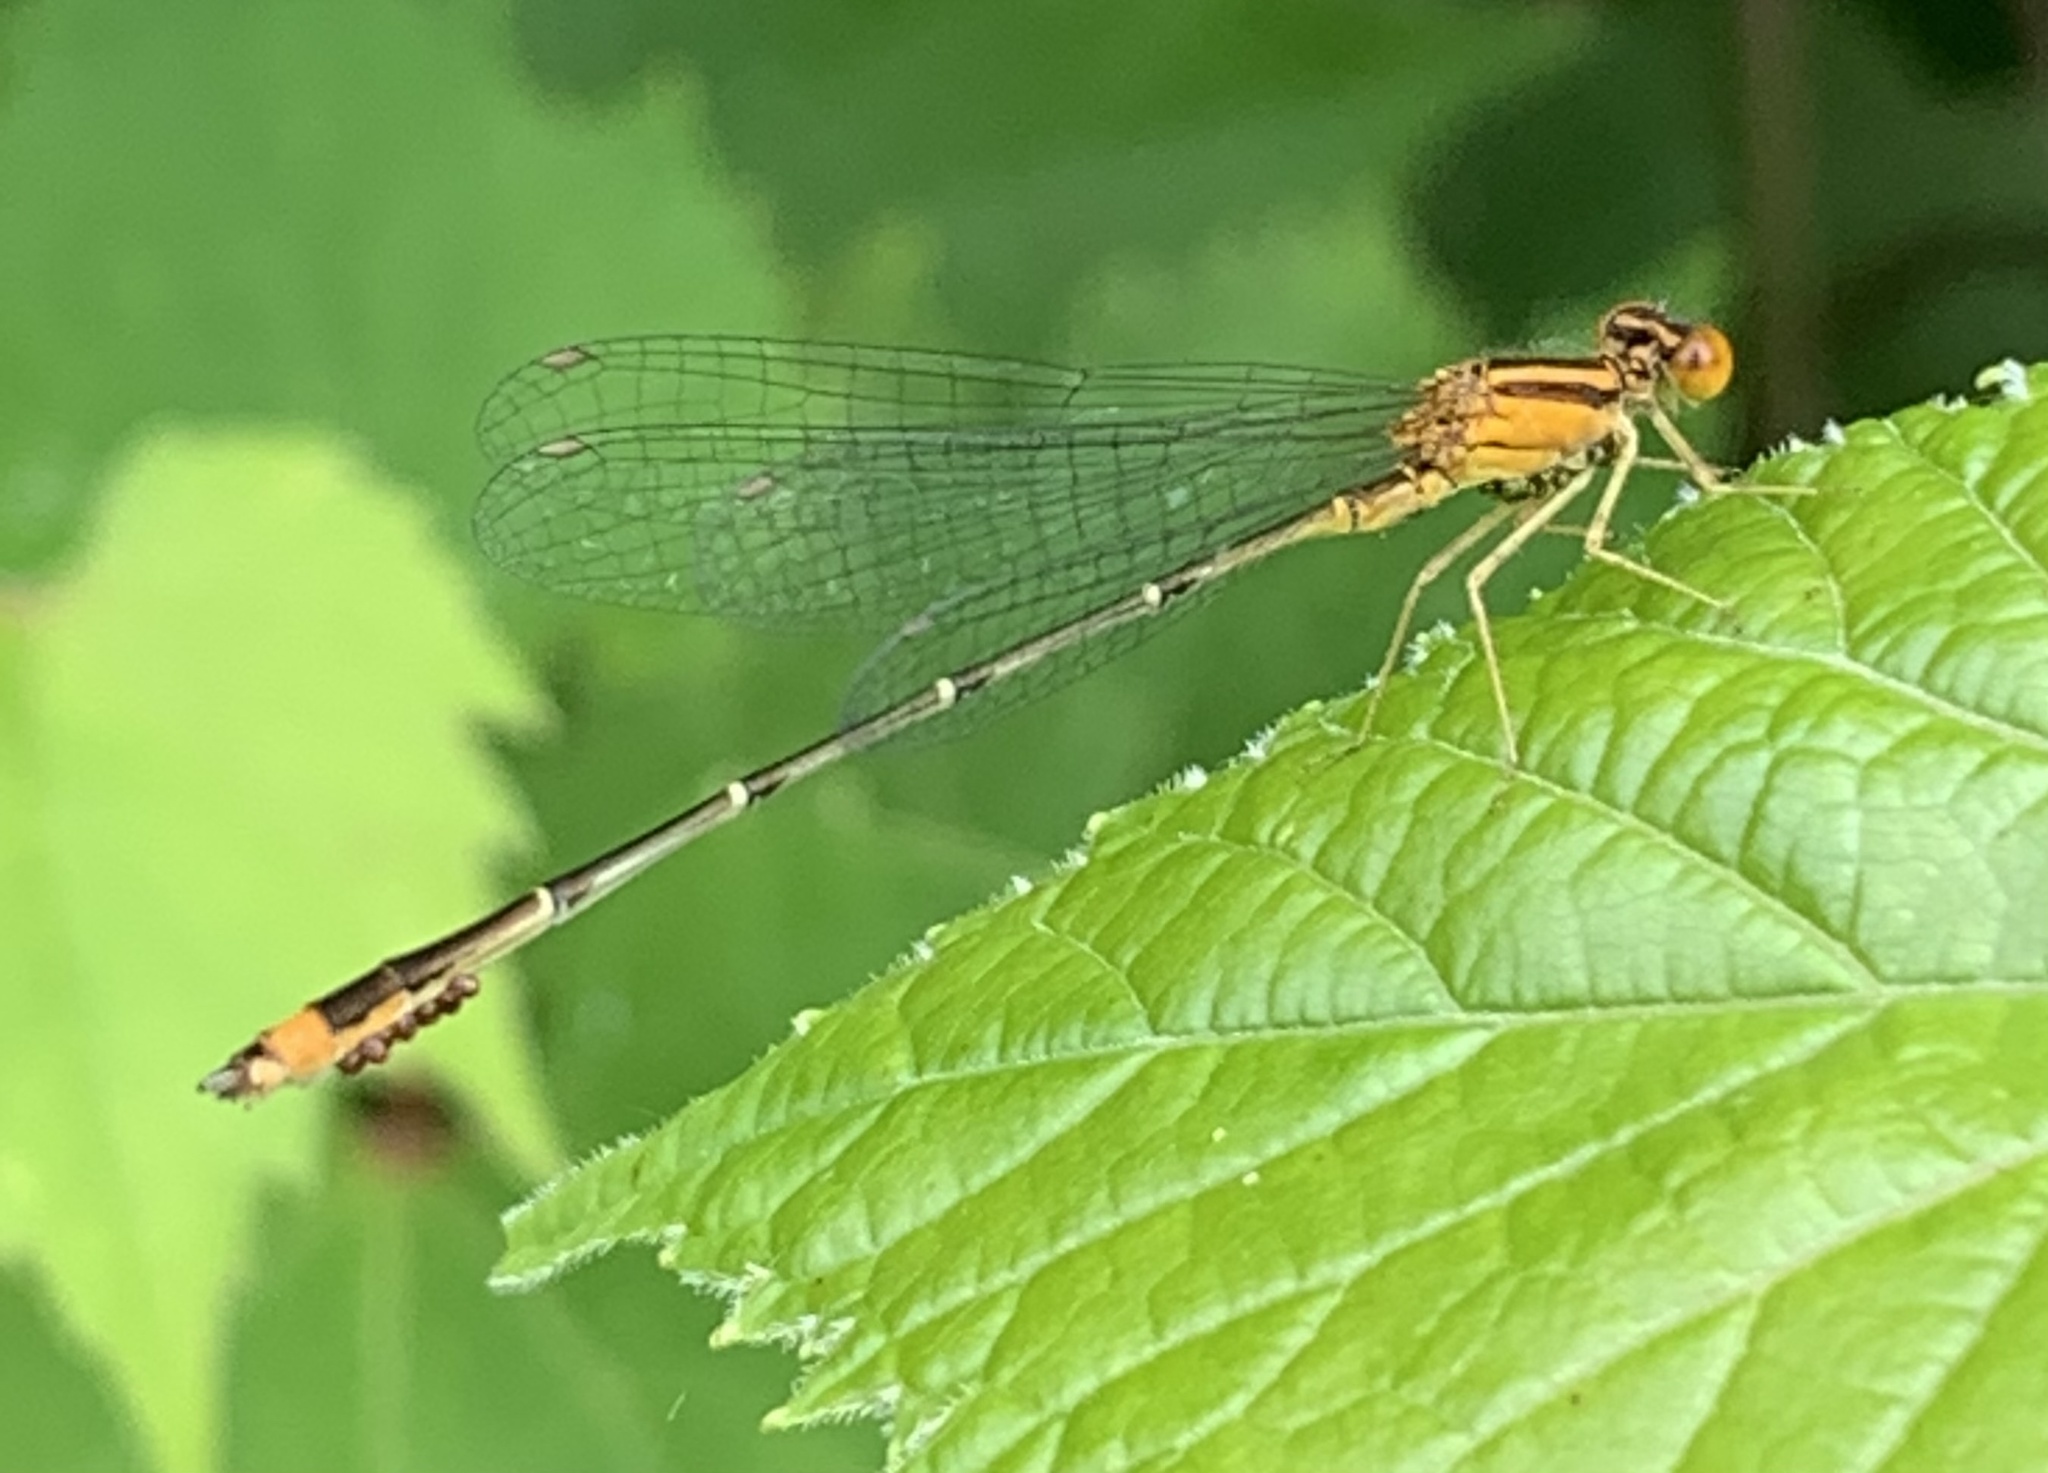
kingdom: Animalia
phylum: Arthropoda
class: Insecta
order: Odonata
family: Coenagrionidae
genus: Enallagma
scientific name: Enallagma signatum
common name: Orange bluet
